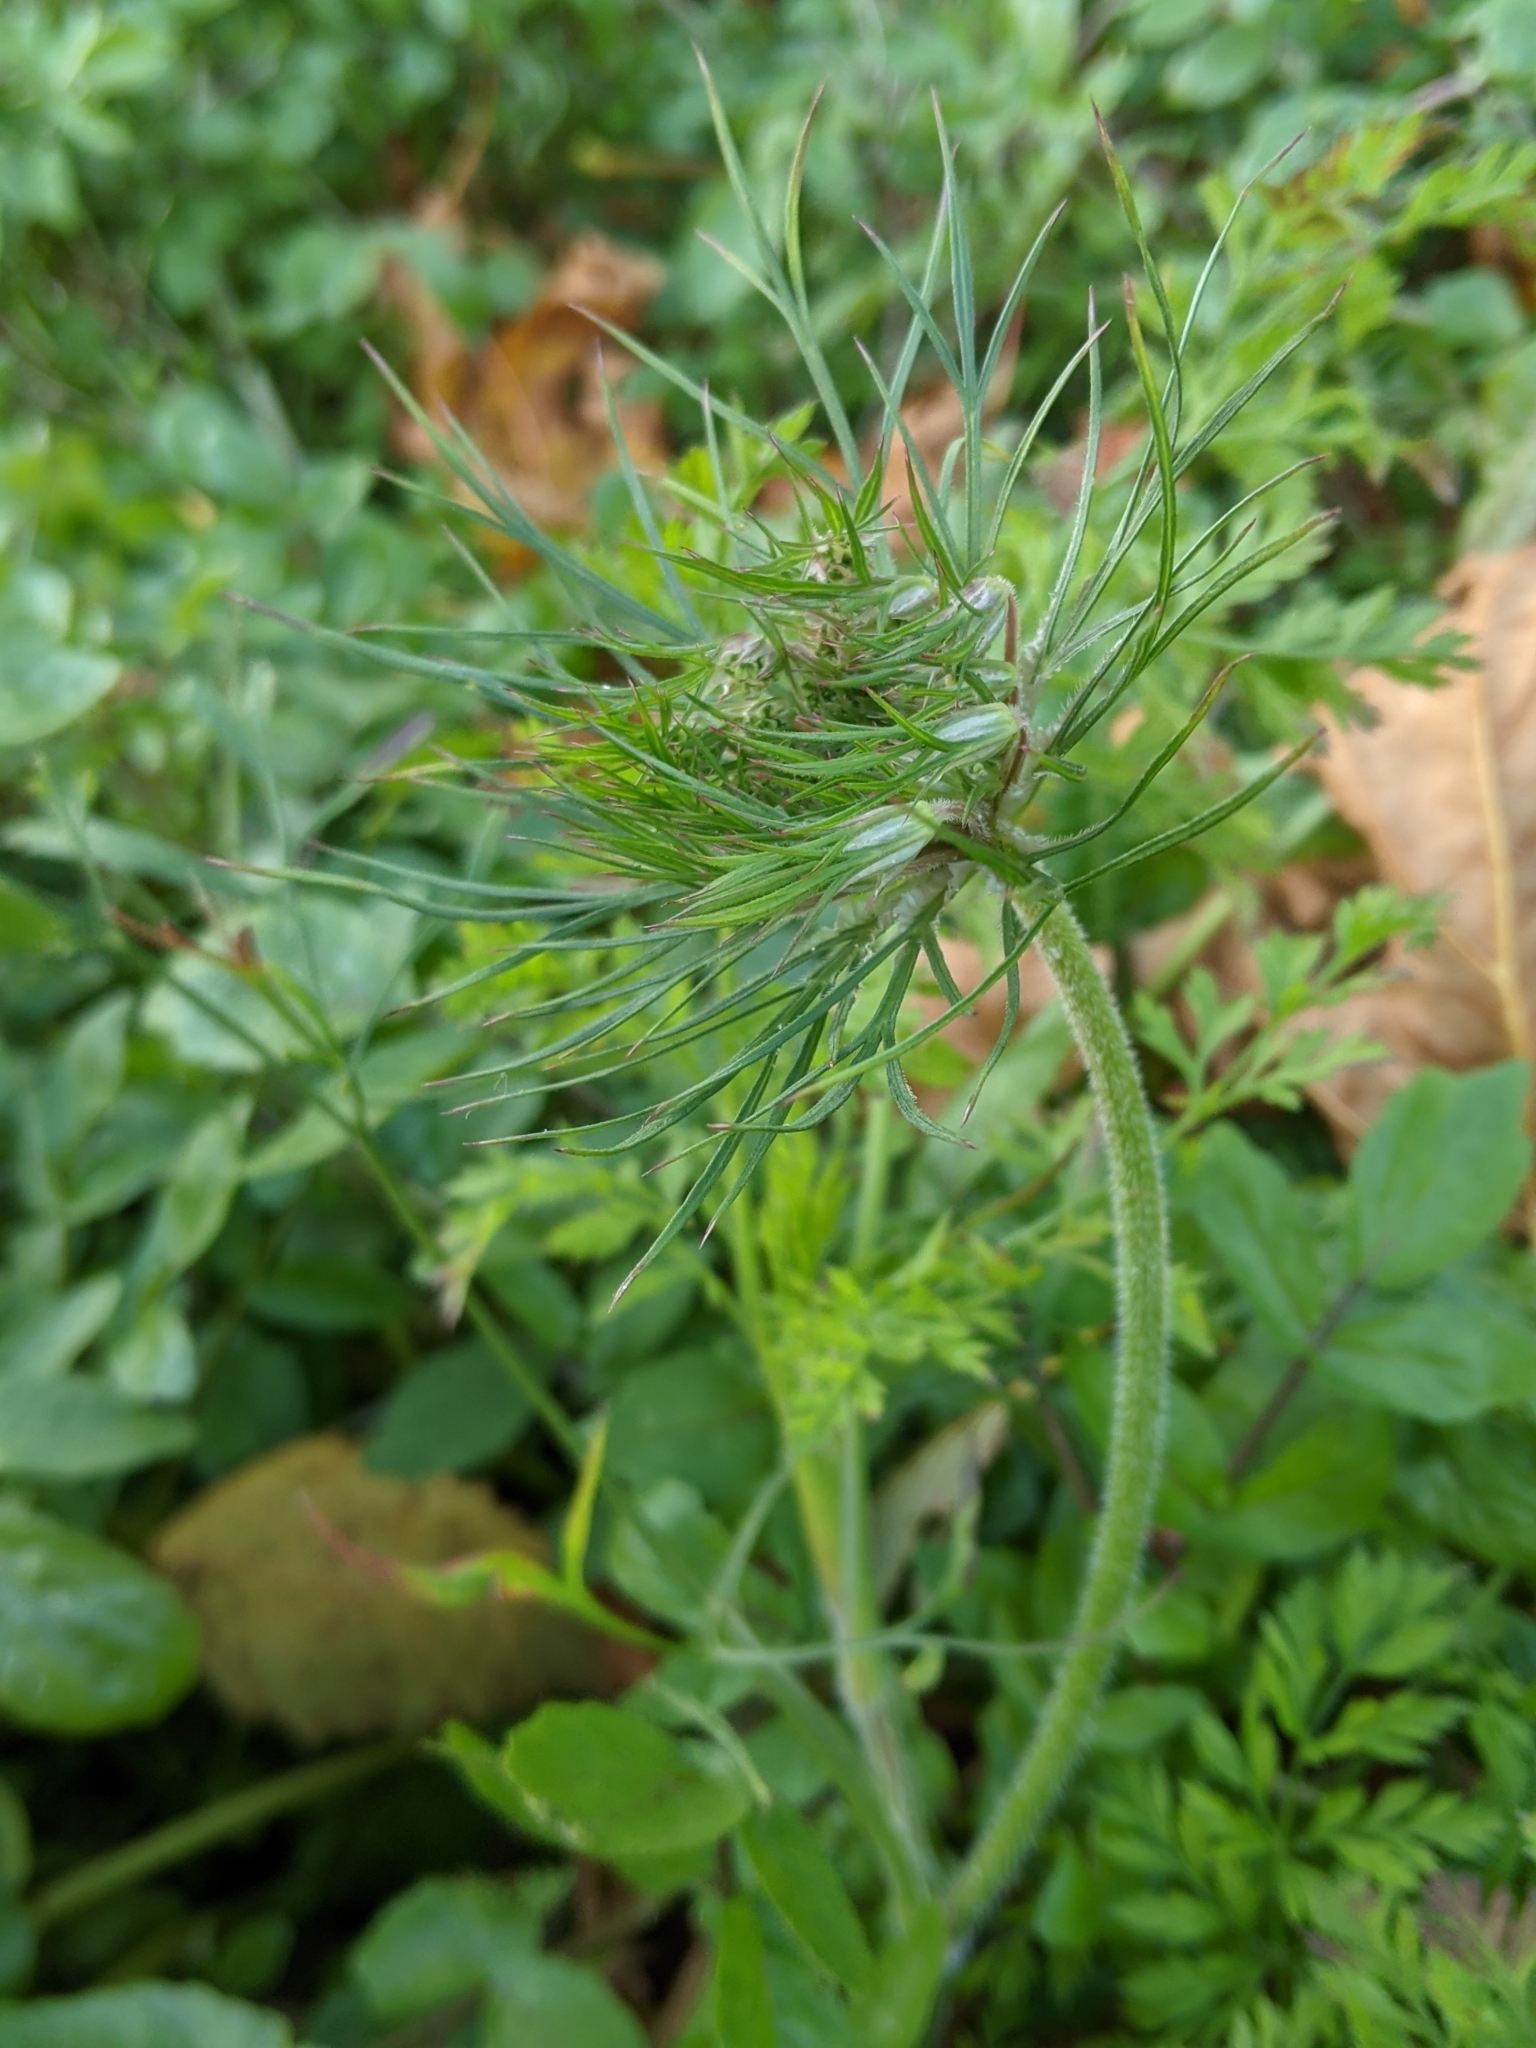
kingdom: Plantae
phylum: Tracheophyta
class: Magnoliopsida
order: Apiales
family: Apiaceae
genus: Daucus
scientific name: Daucus carota
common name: Wild carrot
